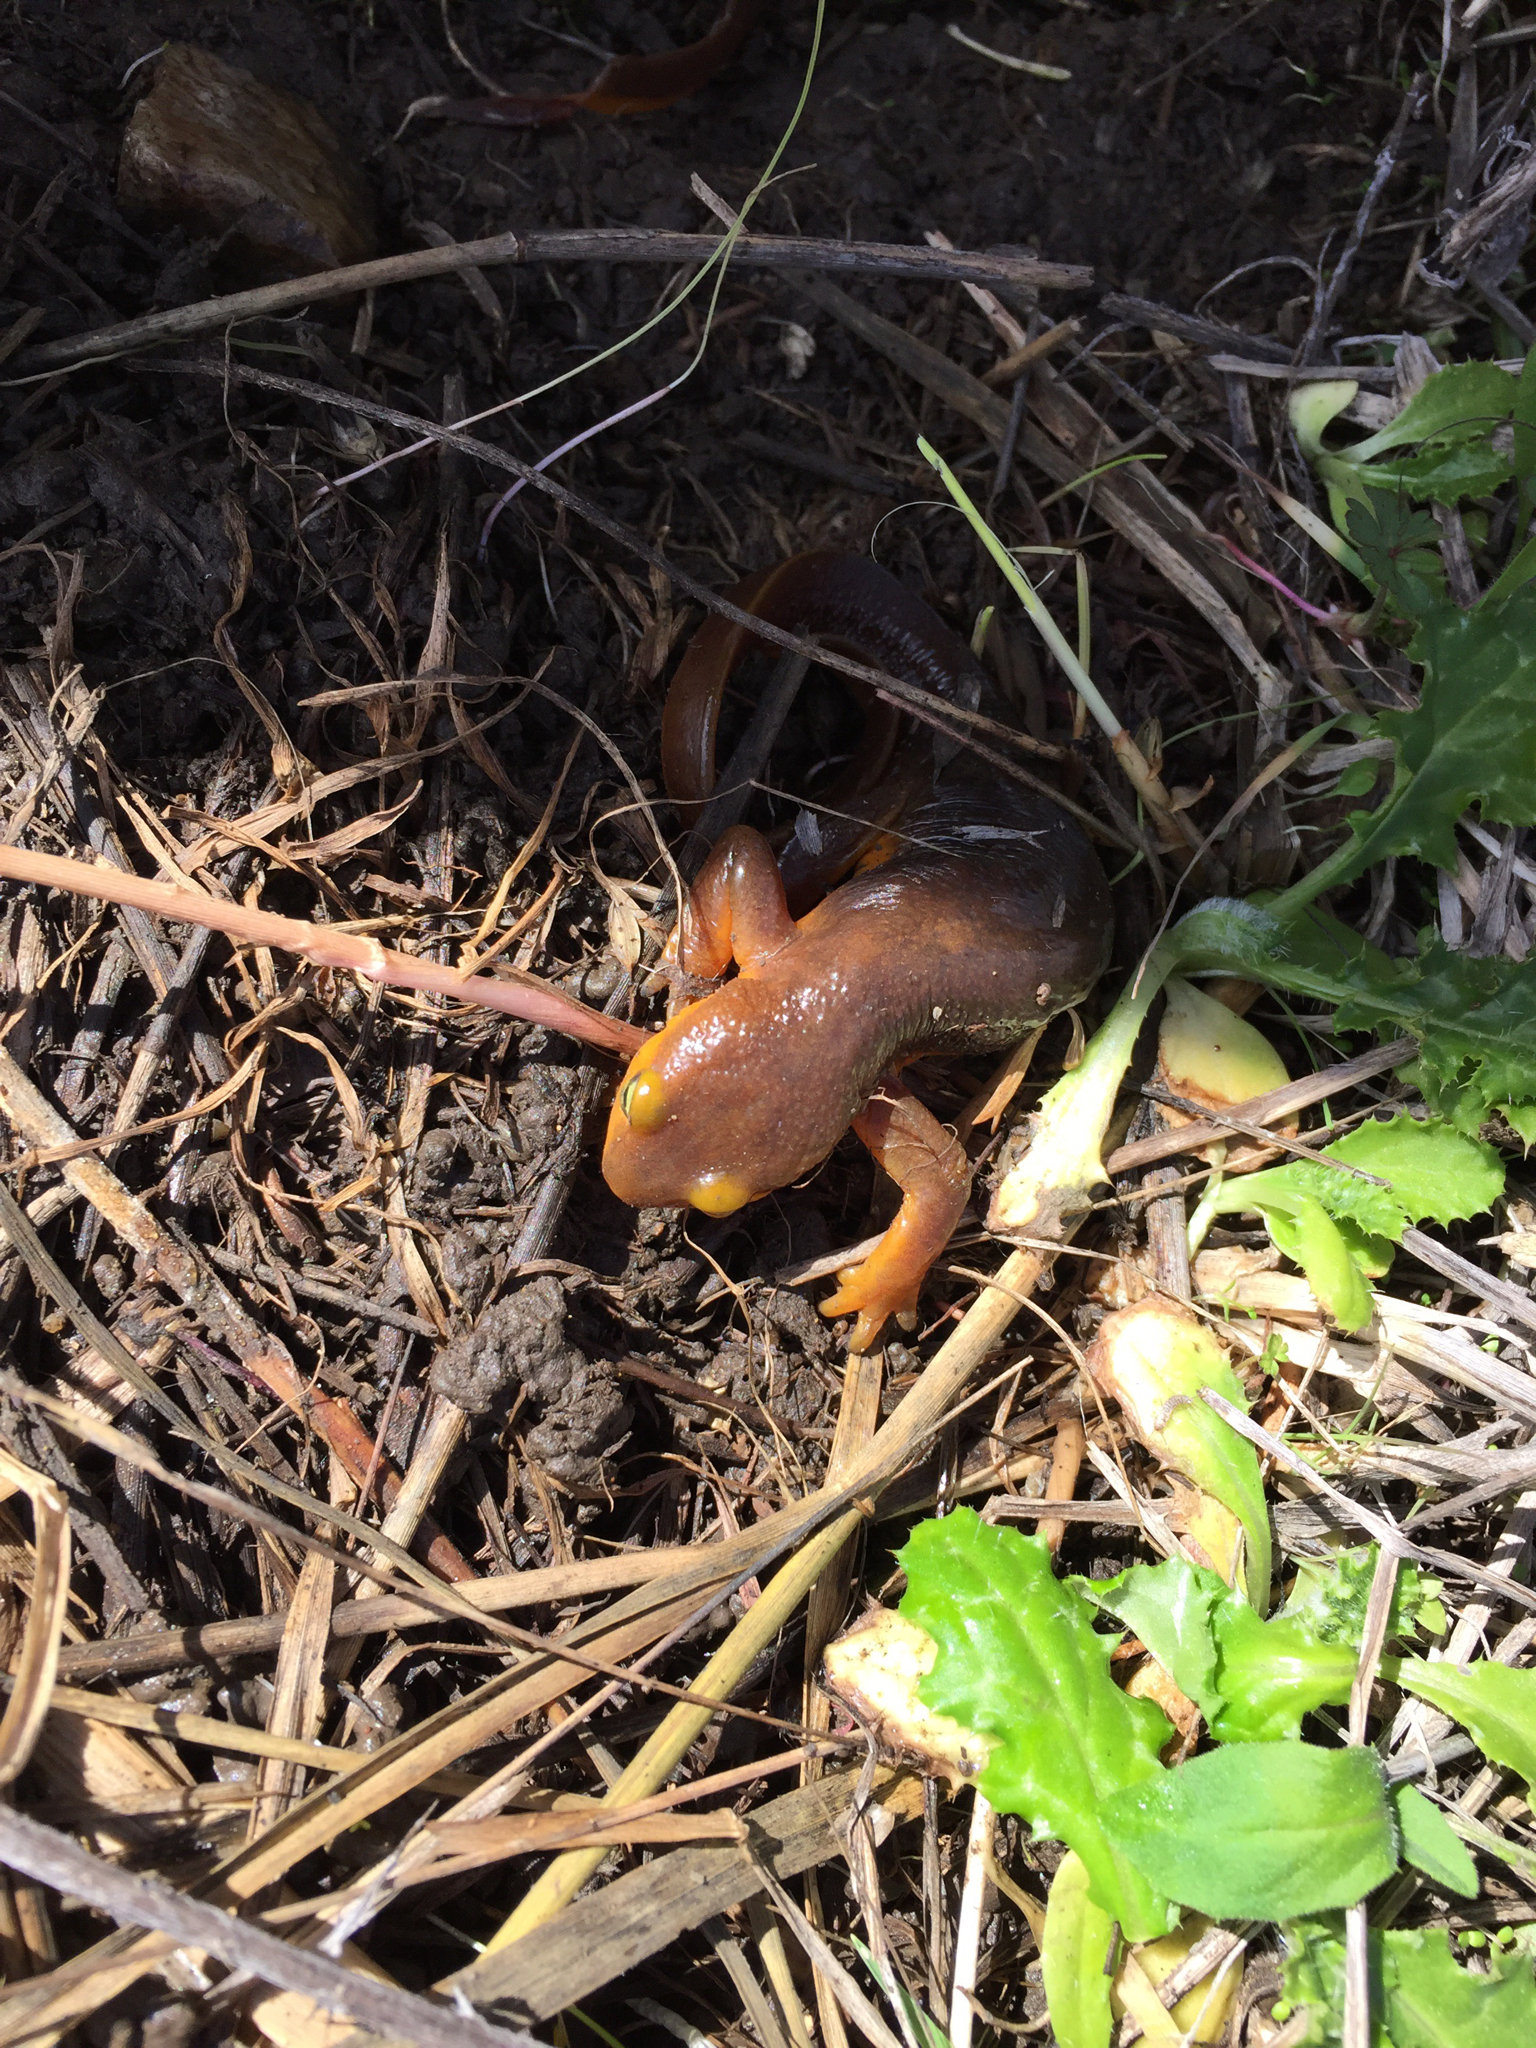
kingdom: Animalia
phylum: Chordata
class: Amphibia
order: Caudata
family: Salamandridae
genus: Taricha
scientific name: Taricha torosa
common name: California newt
